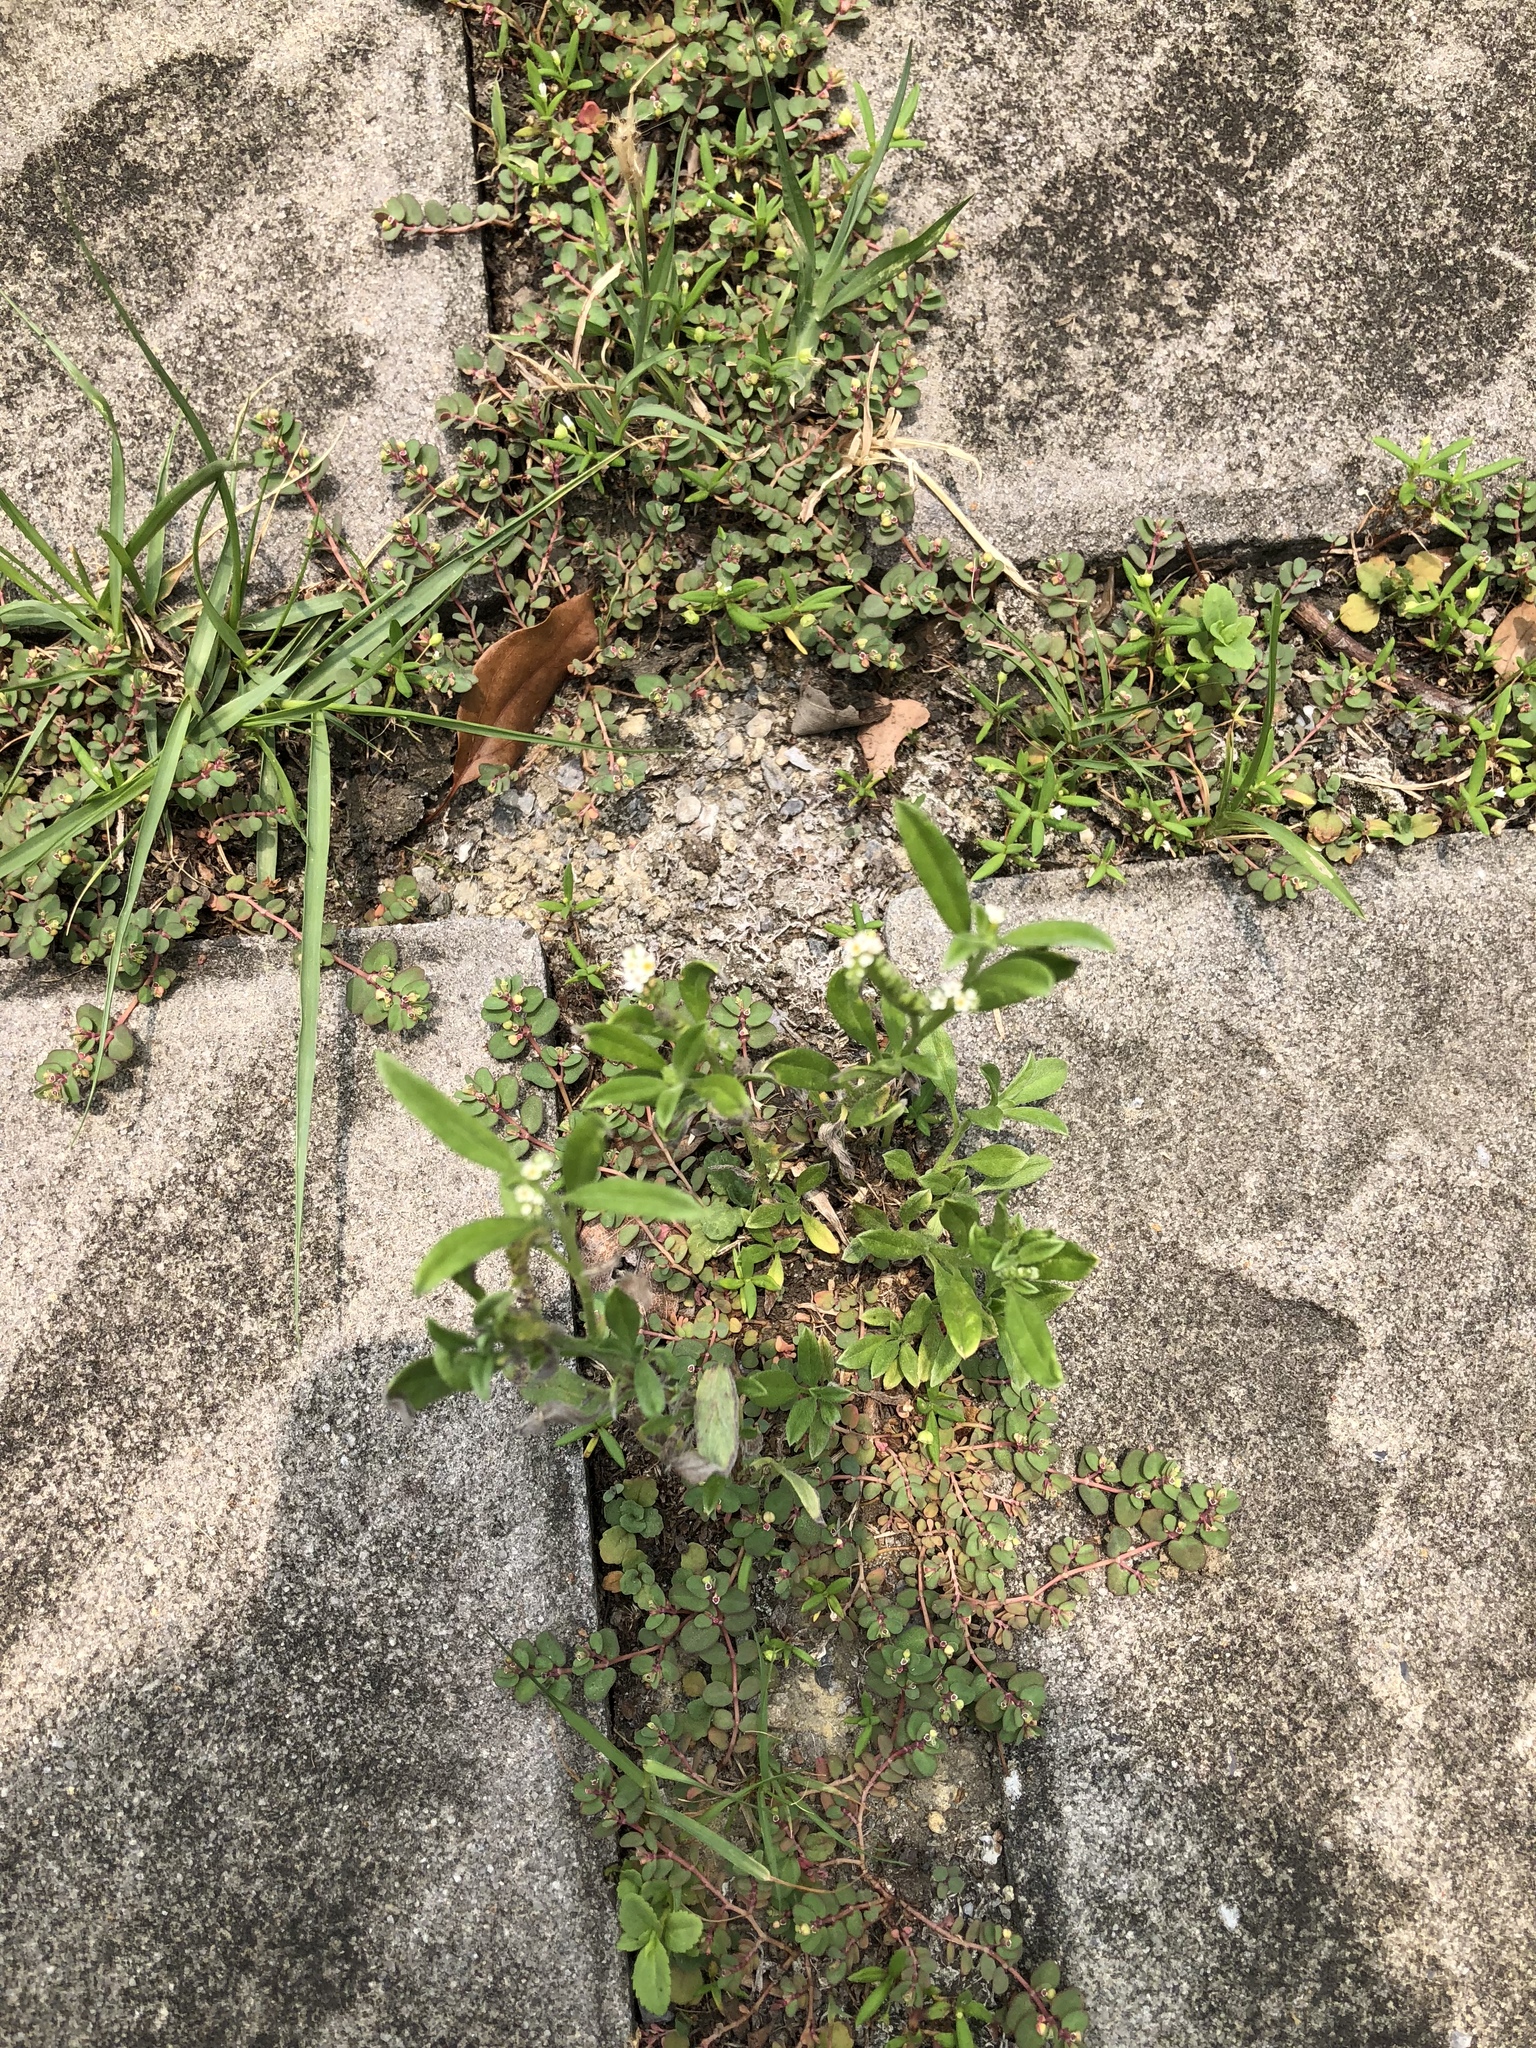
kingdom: Plantae
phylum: Tracheophyta
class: Magnoliopsida
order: Boraginales
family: Heliotropiaceae
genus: Euploca
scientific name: Euploca procumbens
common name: Fourspike heliotrope
